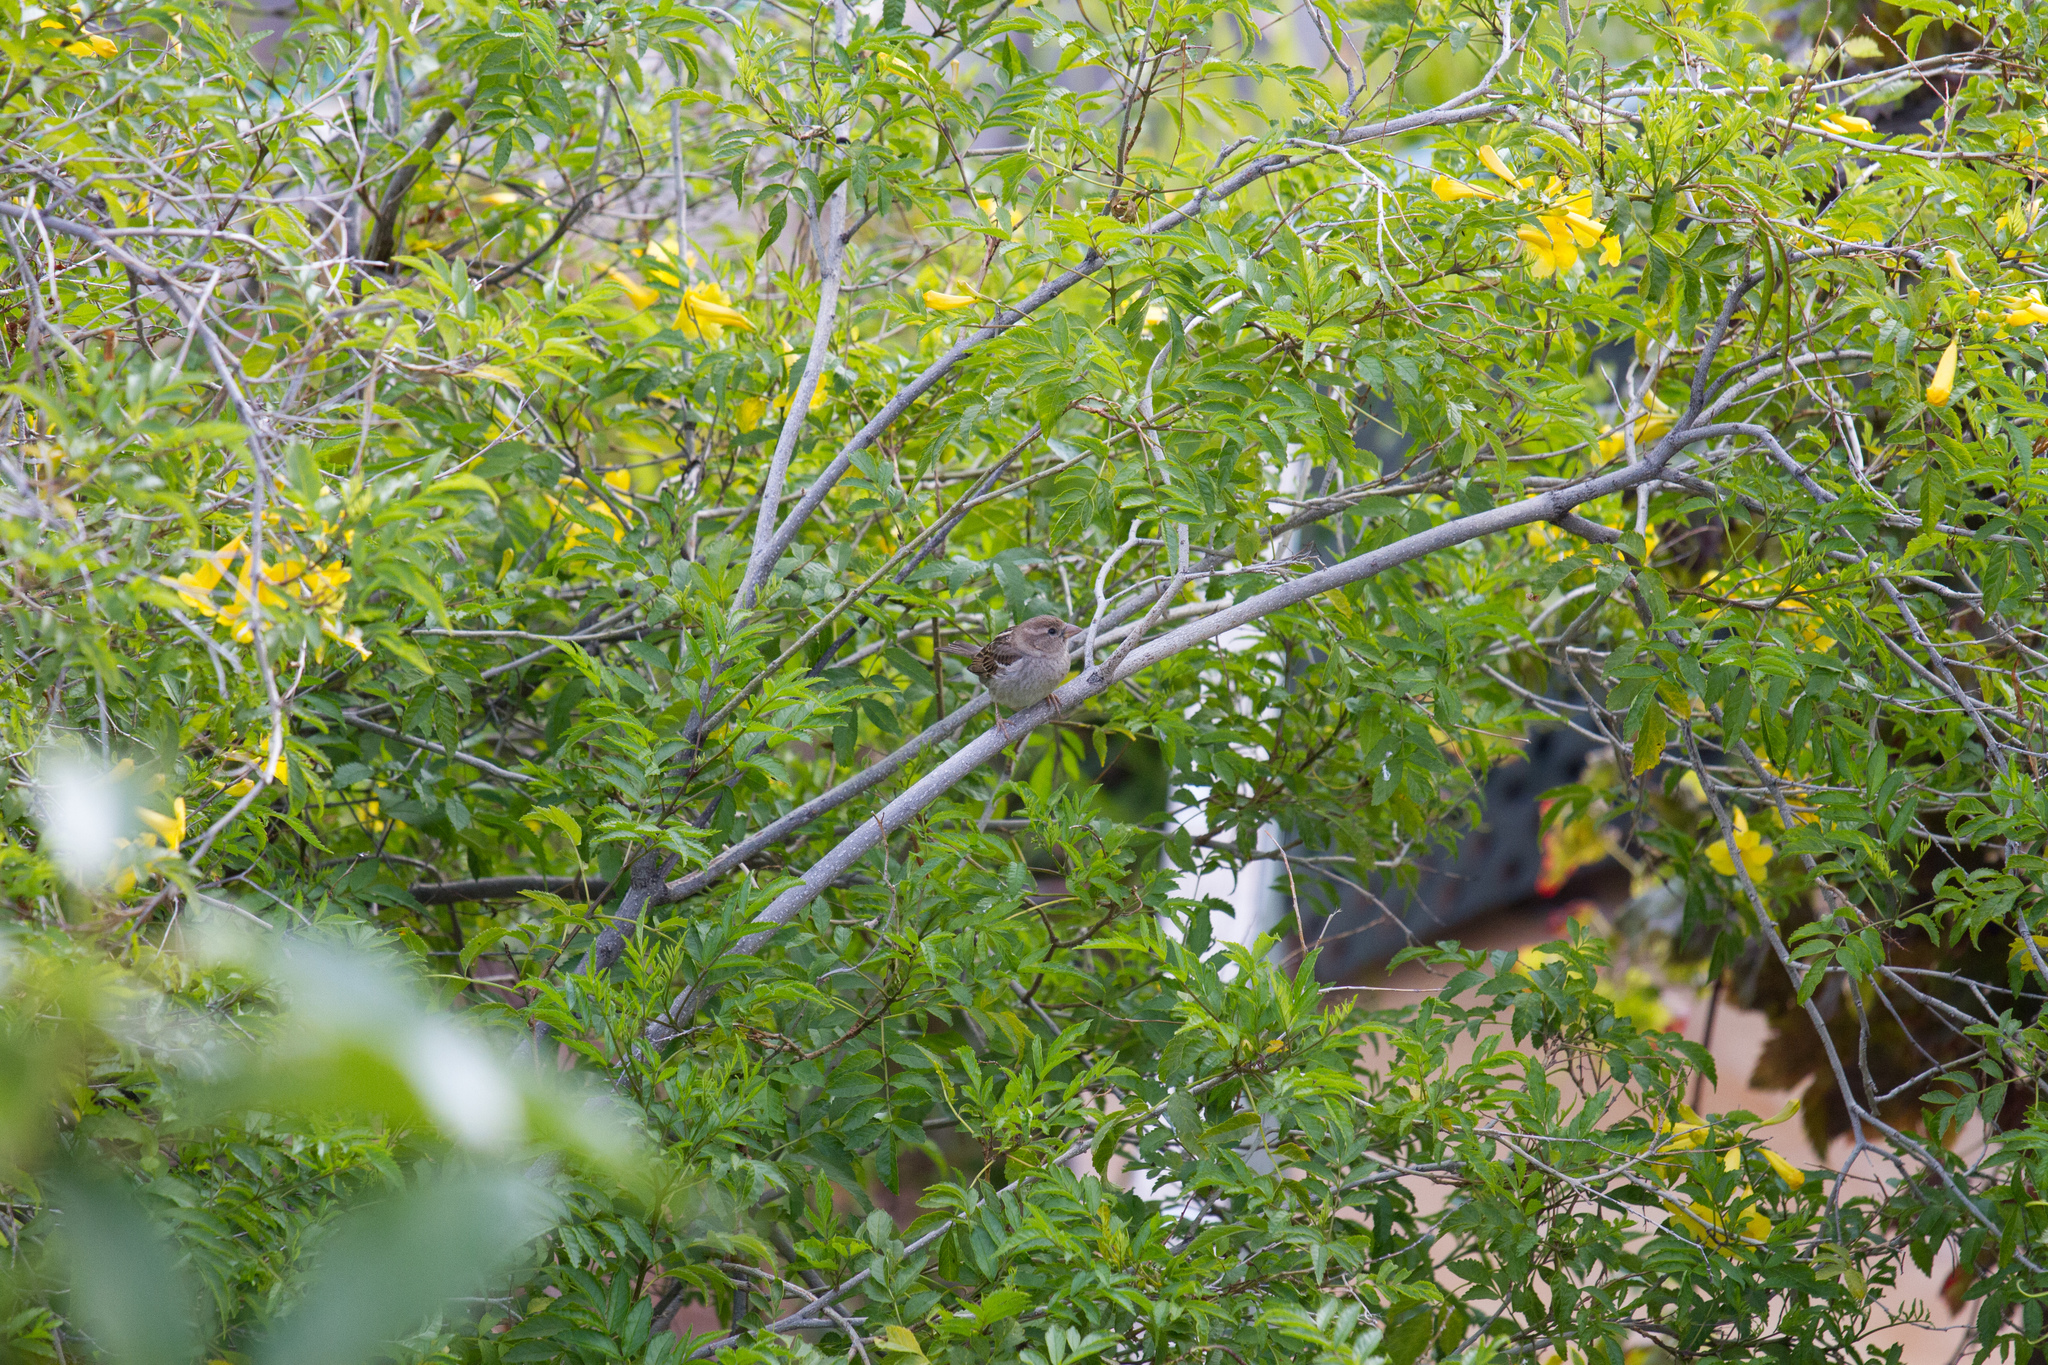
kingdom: Animalia
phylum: Chordata
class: Aves
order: Passeriformes
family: Passeridae
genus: Passer
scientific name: Passer hispaniolensis
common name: Spanish sparrow
